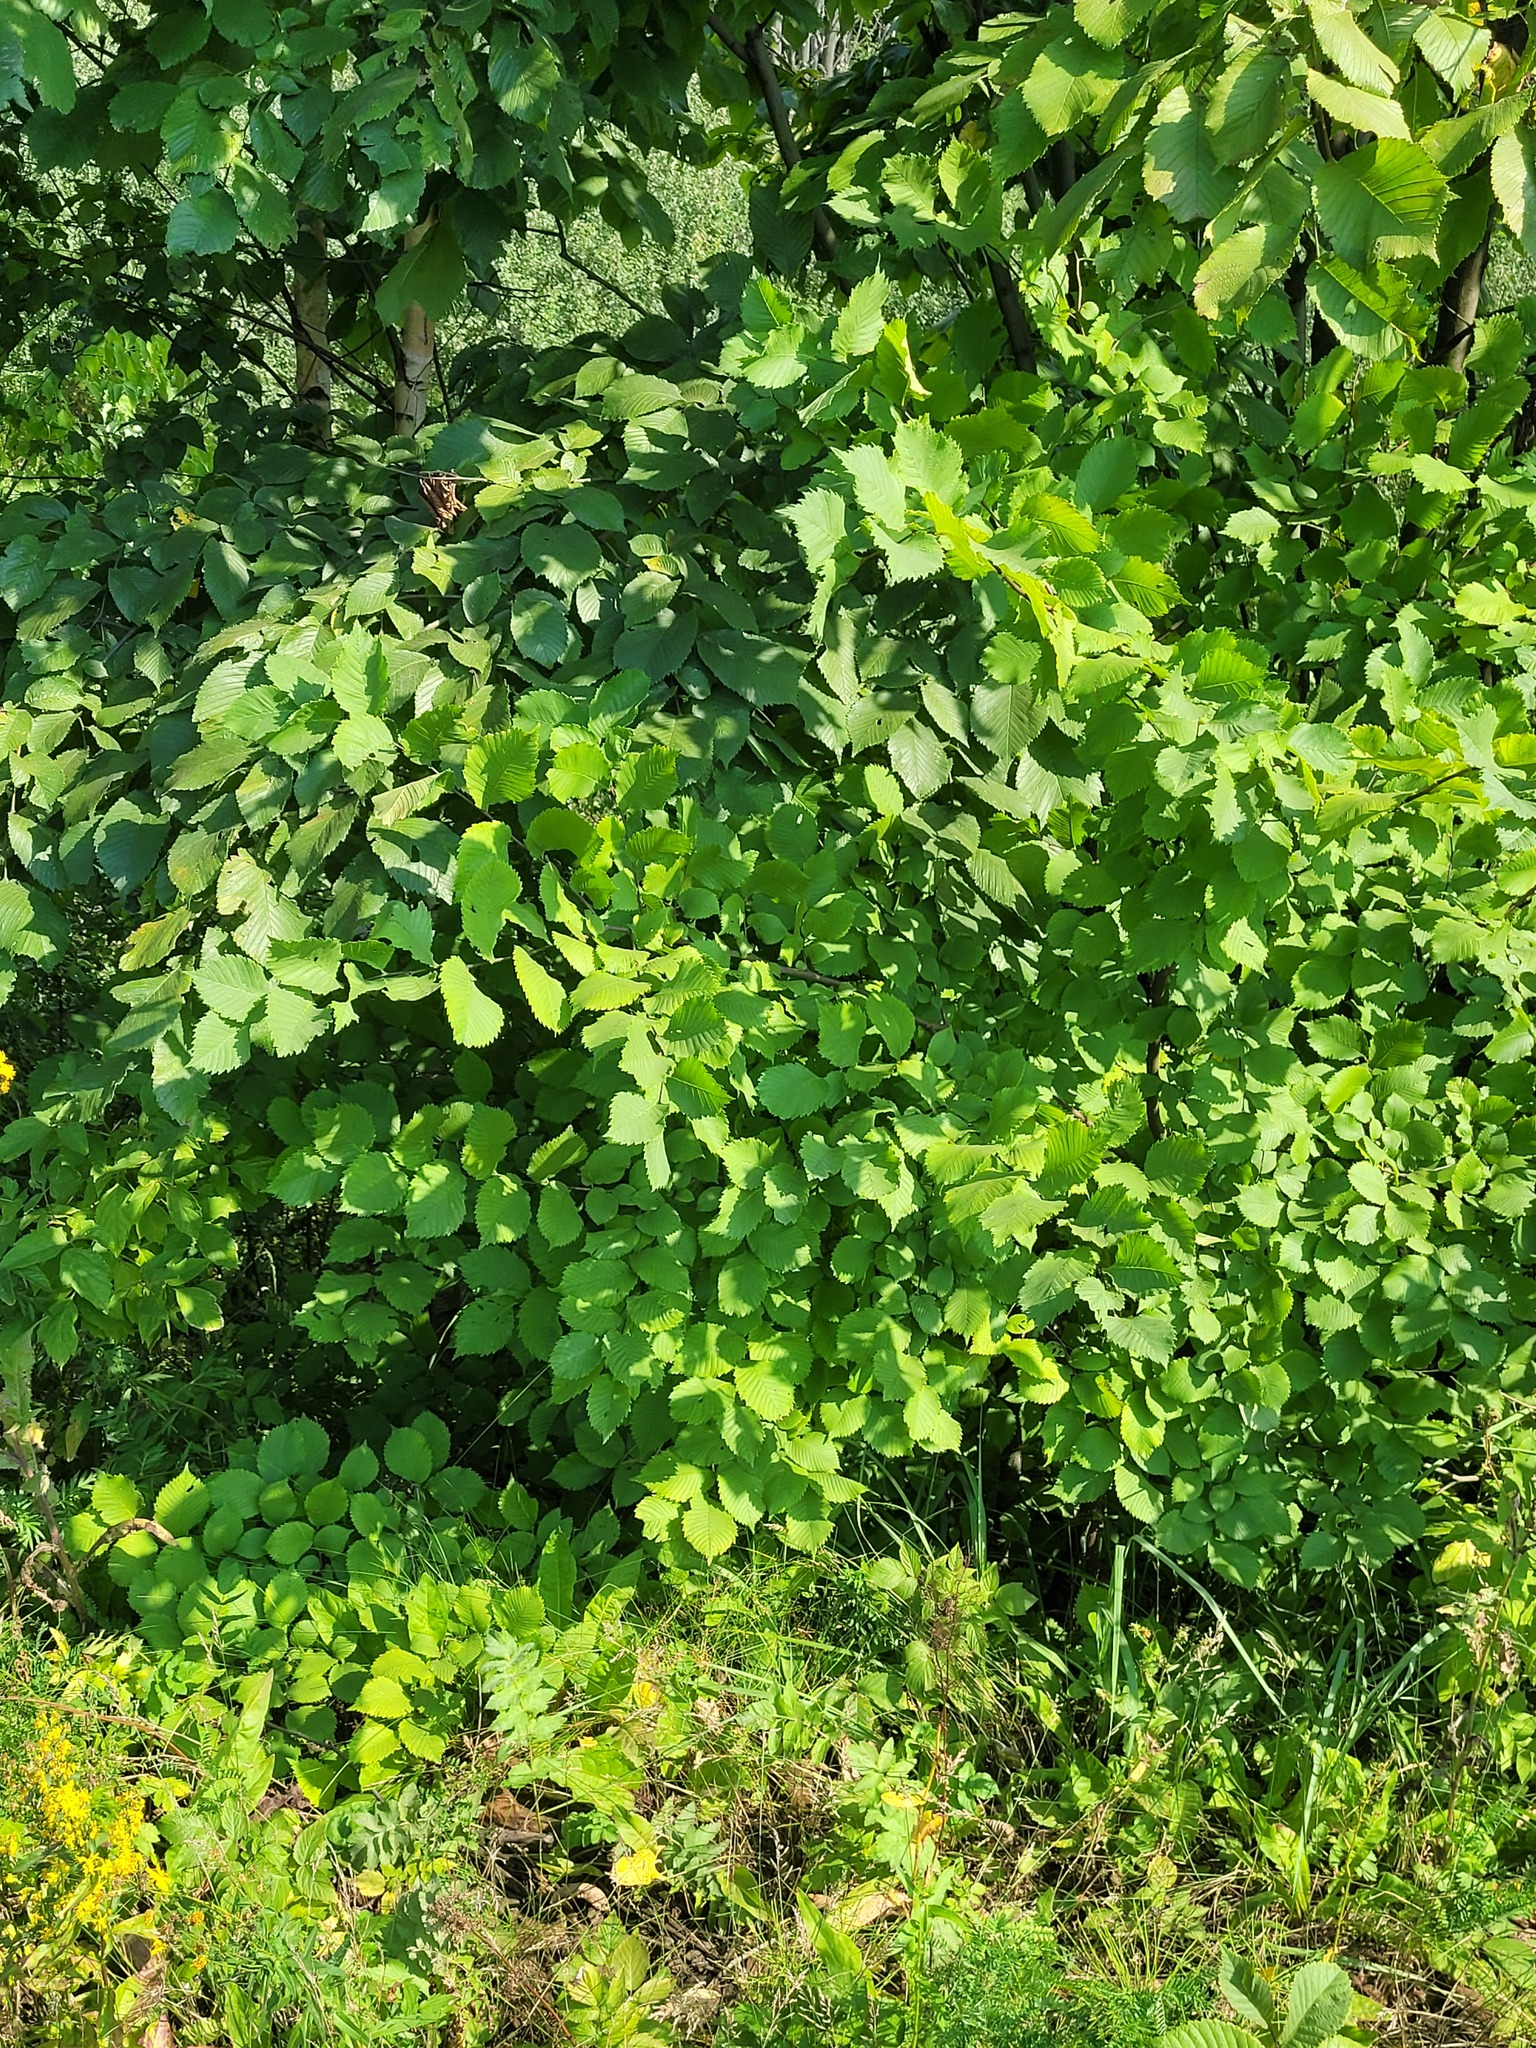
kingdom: Plantae
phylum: Tracheophyta
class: Magnoliopsida
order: Rosales
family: Ulmaceae
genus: Ulmus
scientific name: Ulmus laevis
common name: European white-elm
